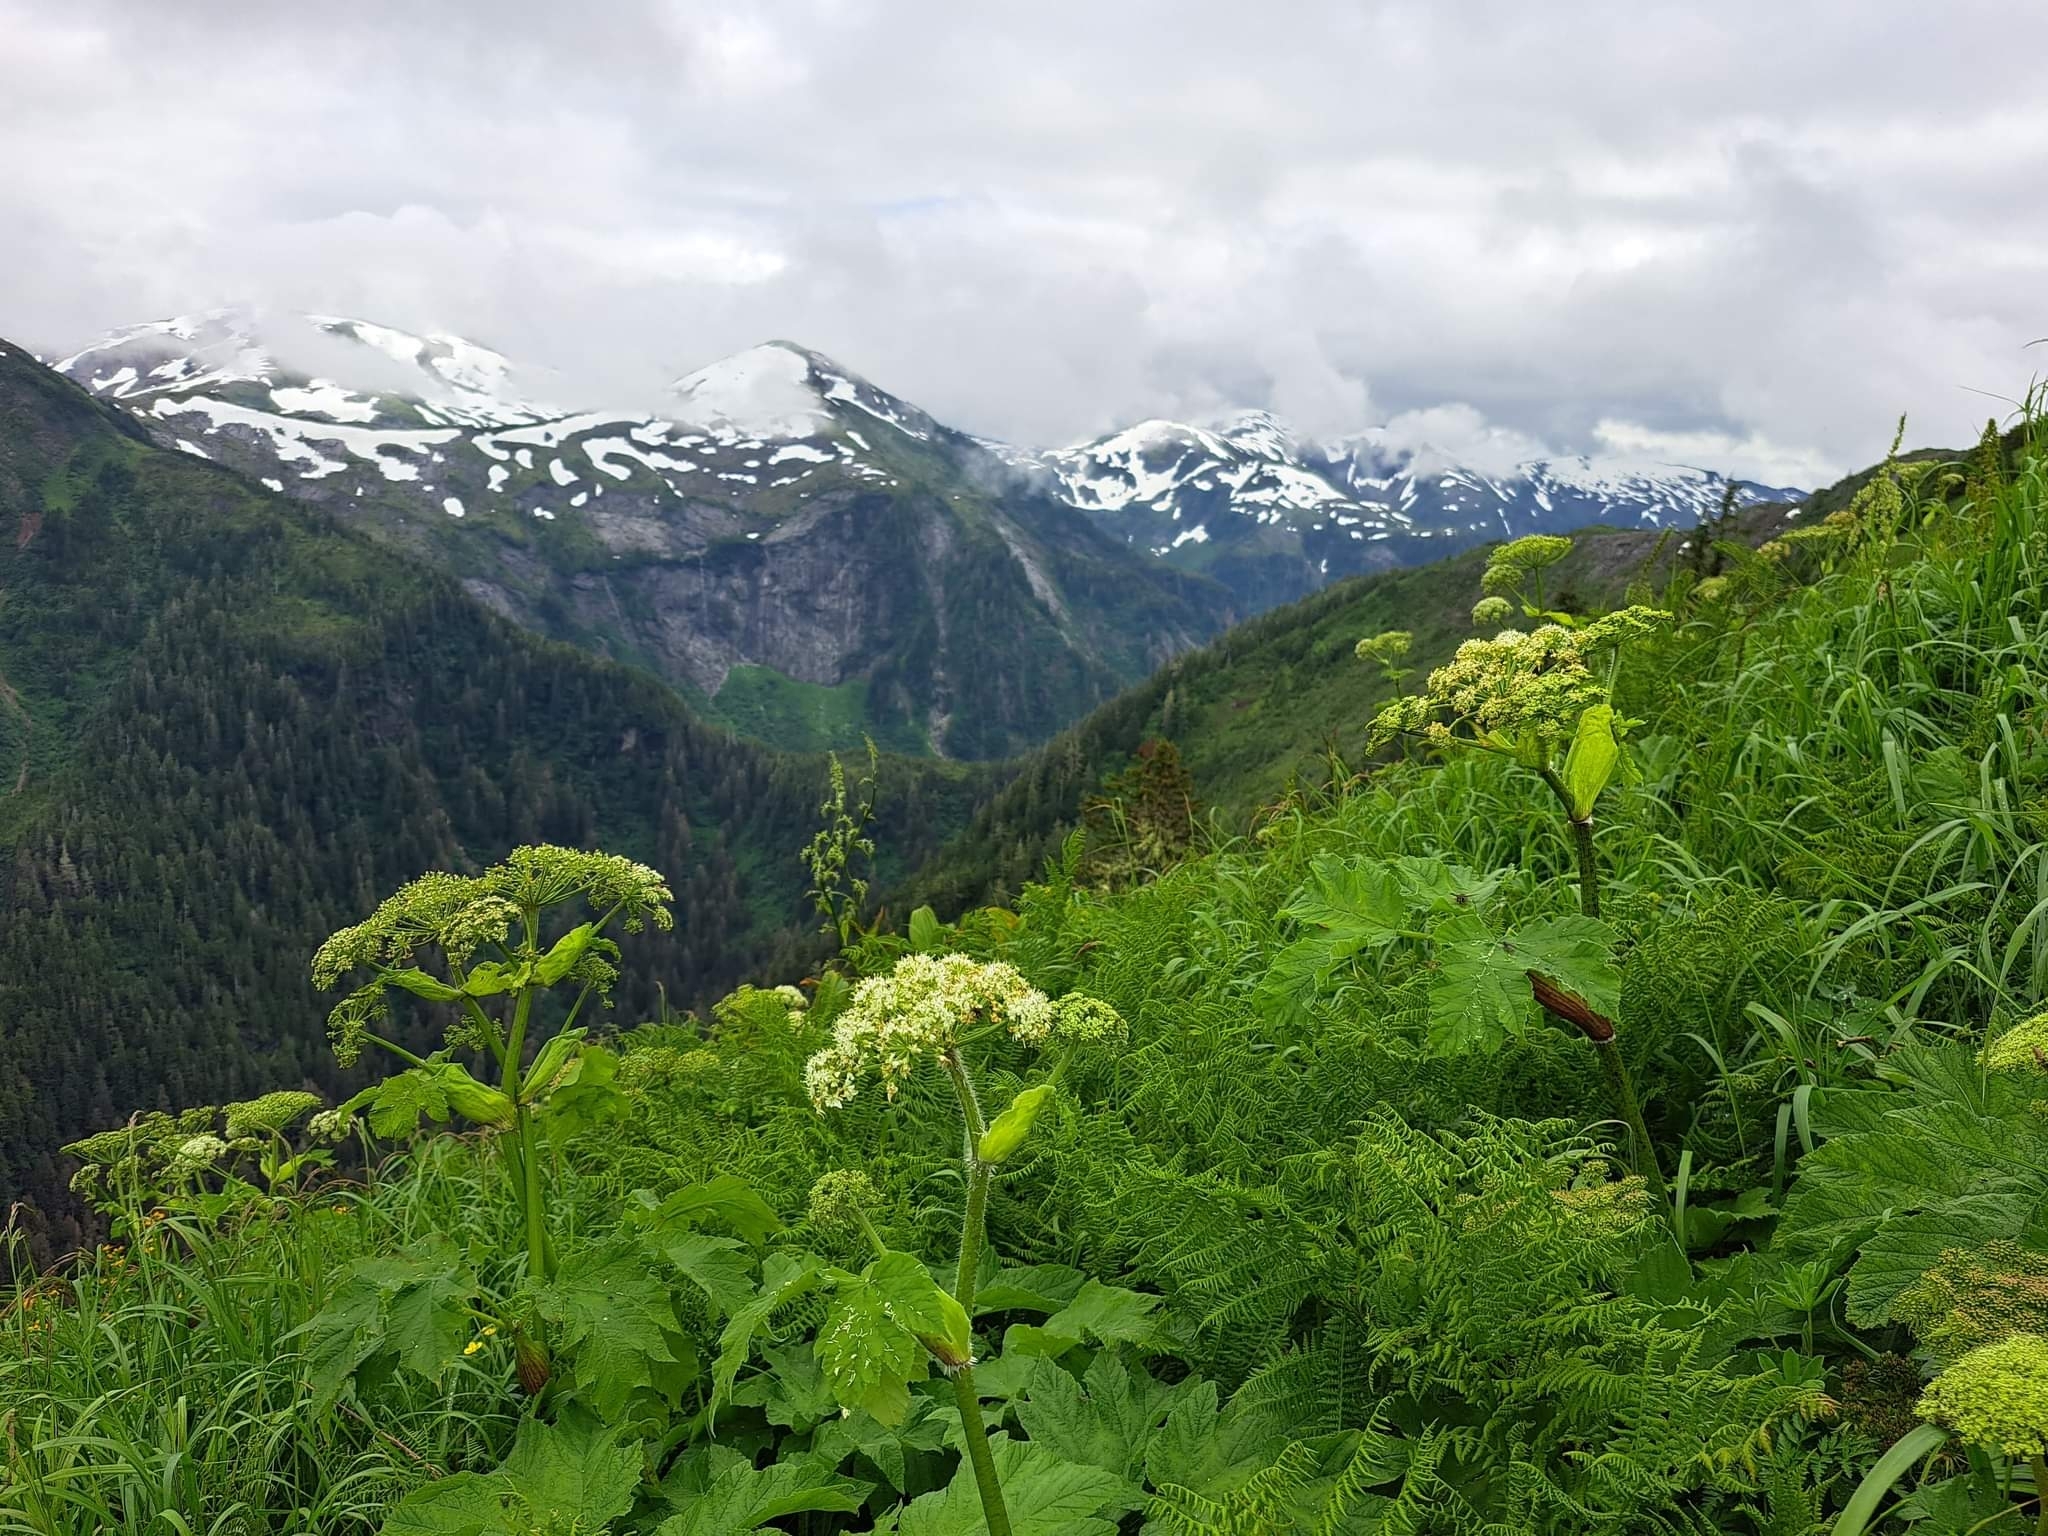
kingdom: Plantae
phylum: Tracheophyta
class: Magnoliopsida
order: Apiales
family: Apiaceae
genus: Heracleum
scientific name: Heracleum maximum
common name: American cow parsnip
